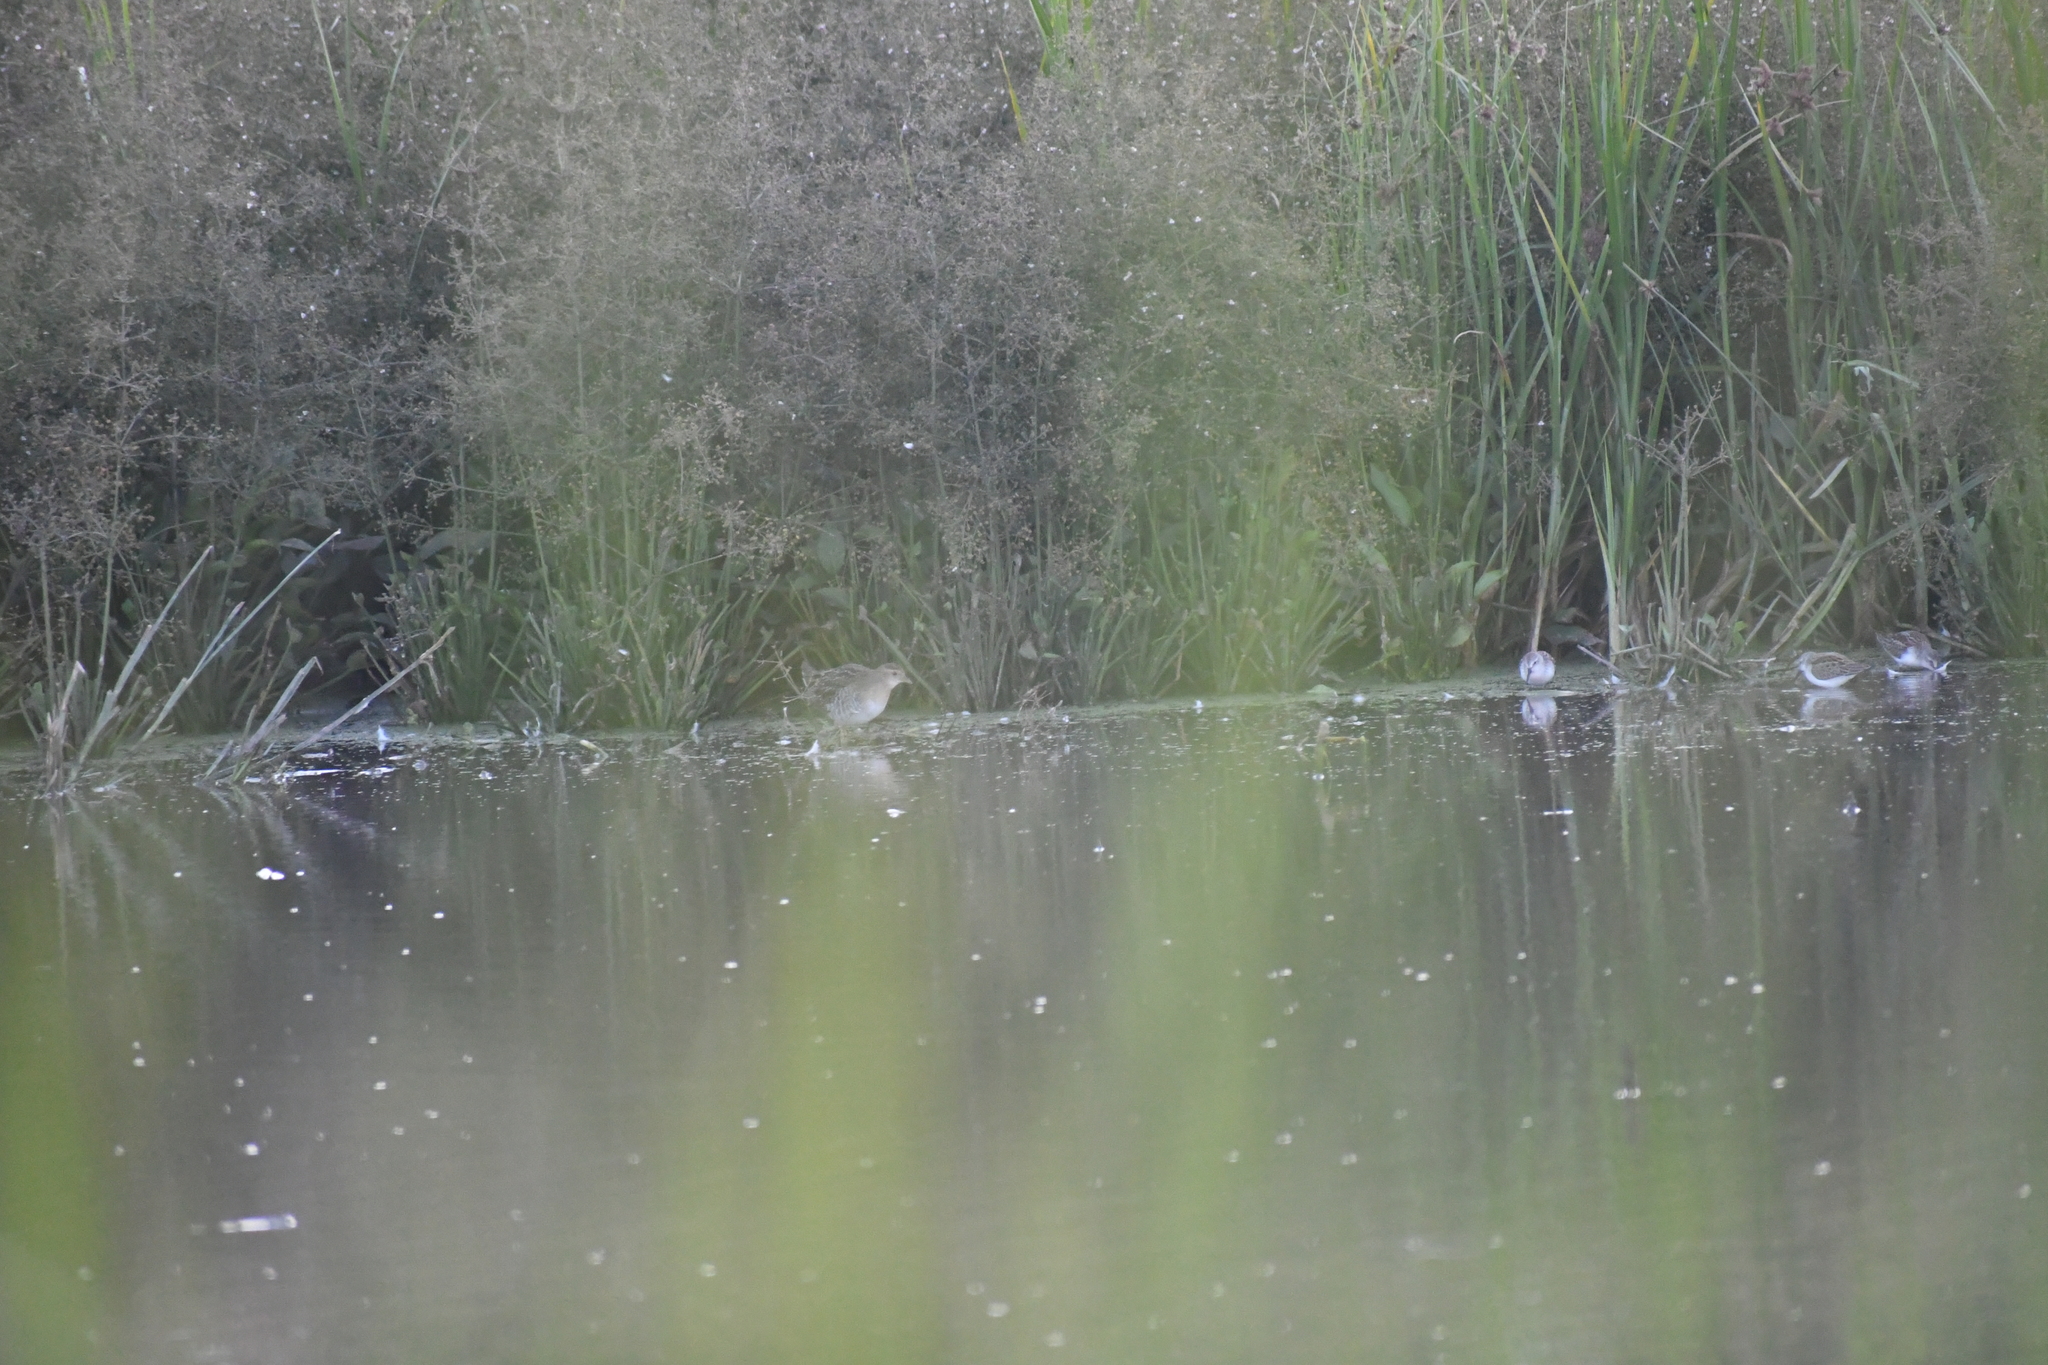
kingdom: Animalia
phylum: Chordata
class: Aves
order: Gruiformes
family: Rallidae
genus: Porzana
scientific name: Porzana carolina
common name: Sora
